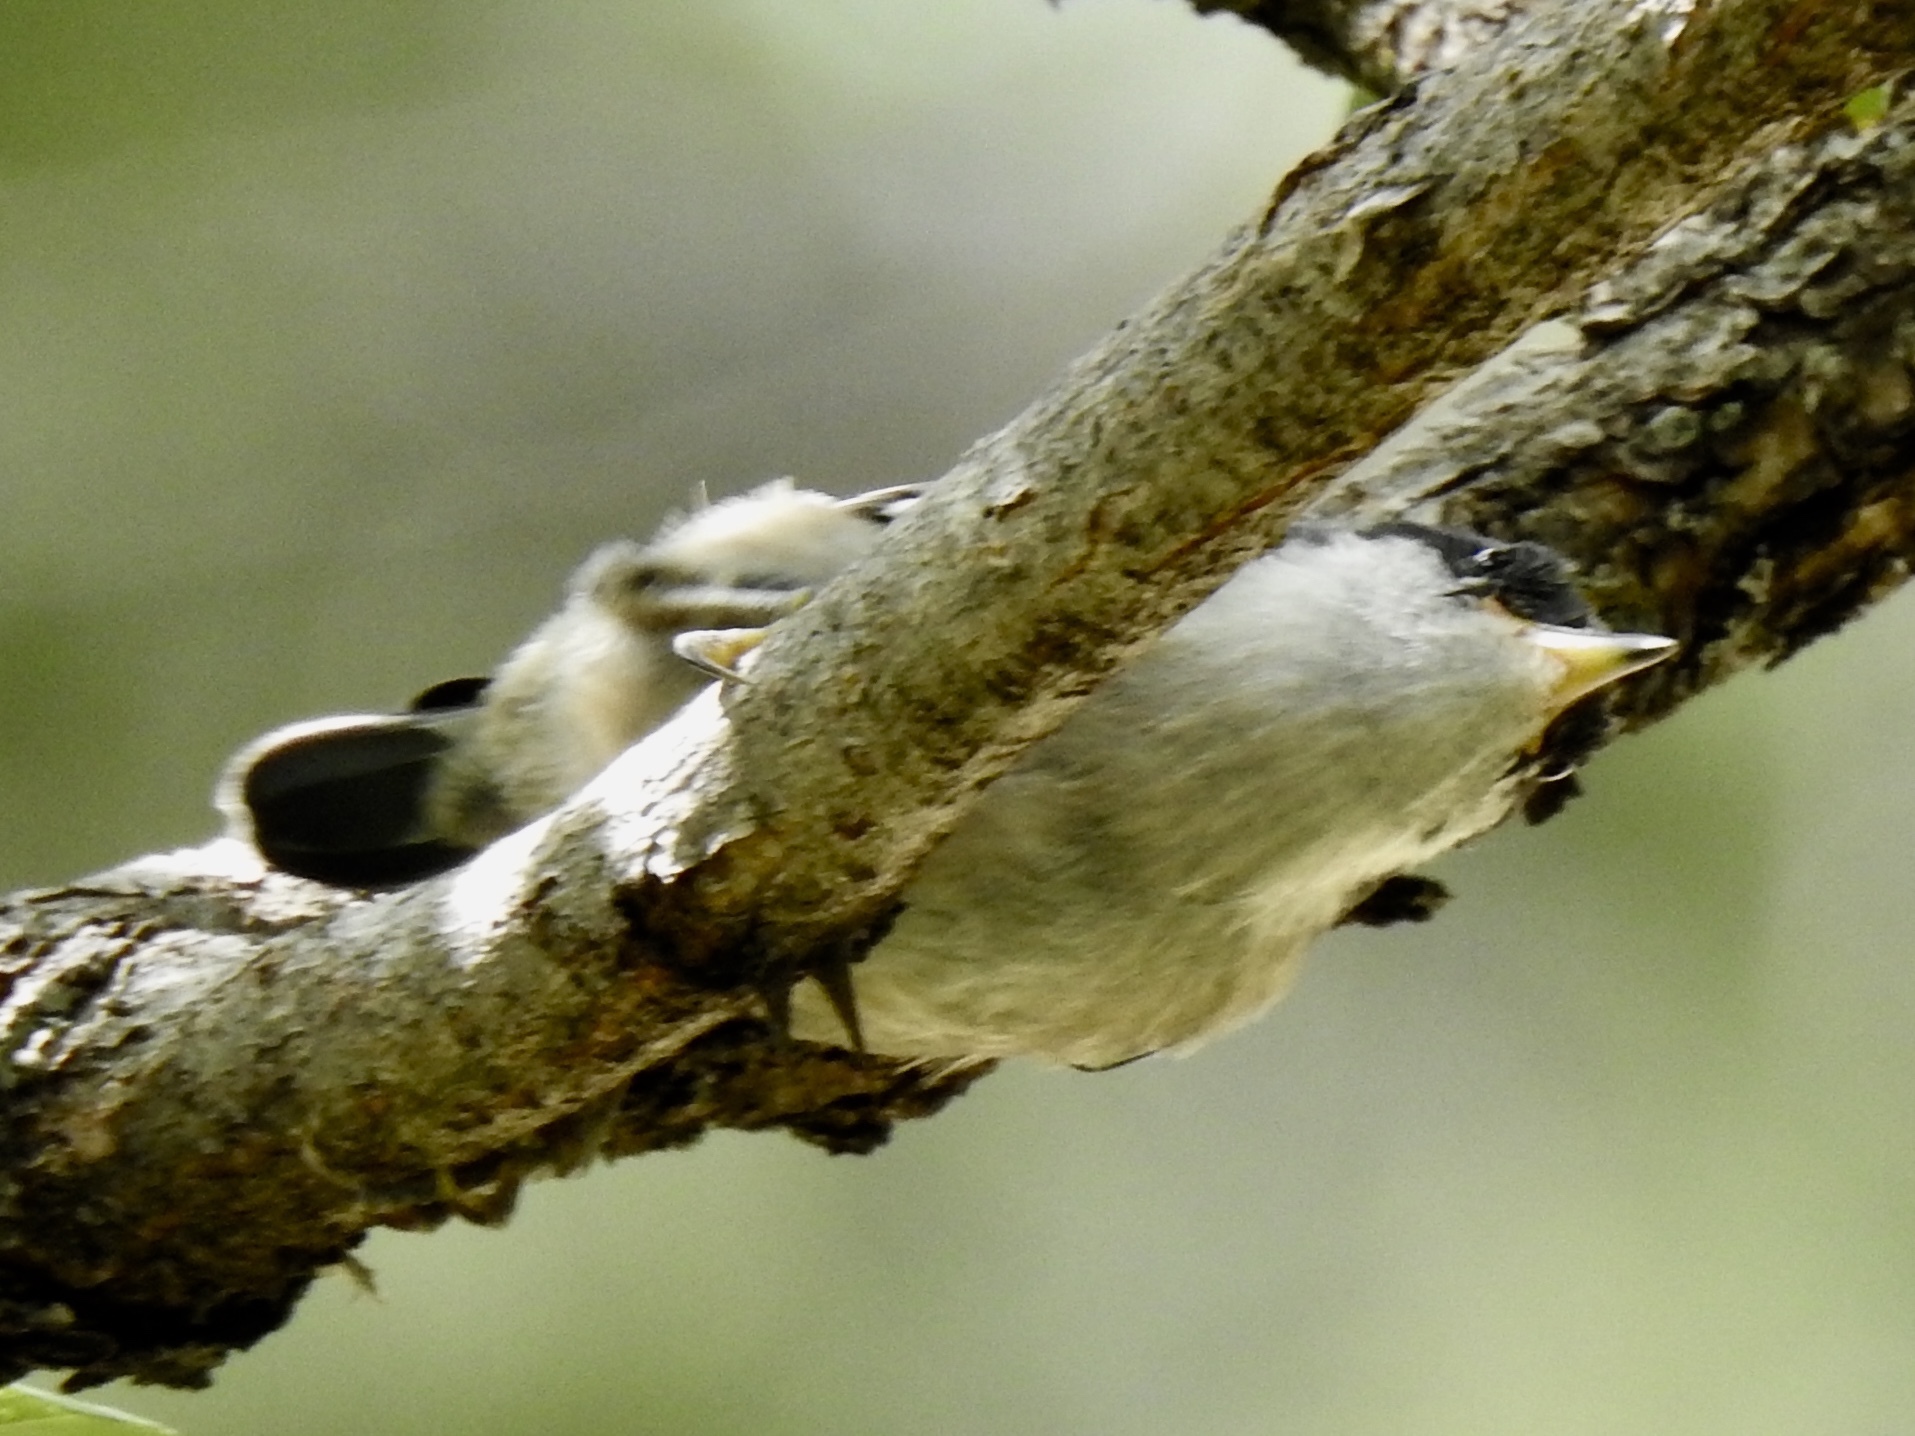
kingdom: Animalia
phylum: Chordata
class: Aves
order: Passeriformes
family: Sittidae
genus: Sitta
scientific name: Sitta pygmaea
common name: Pygmy nuthatch
